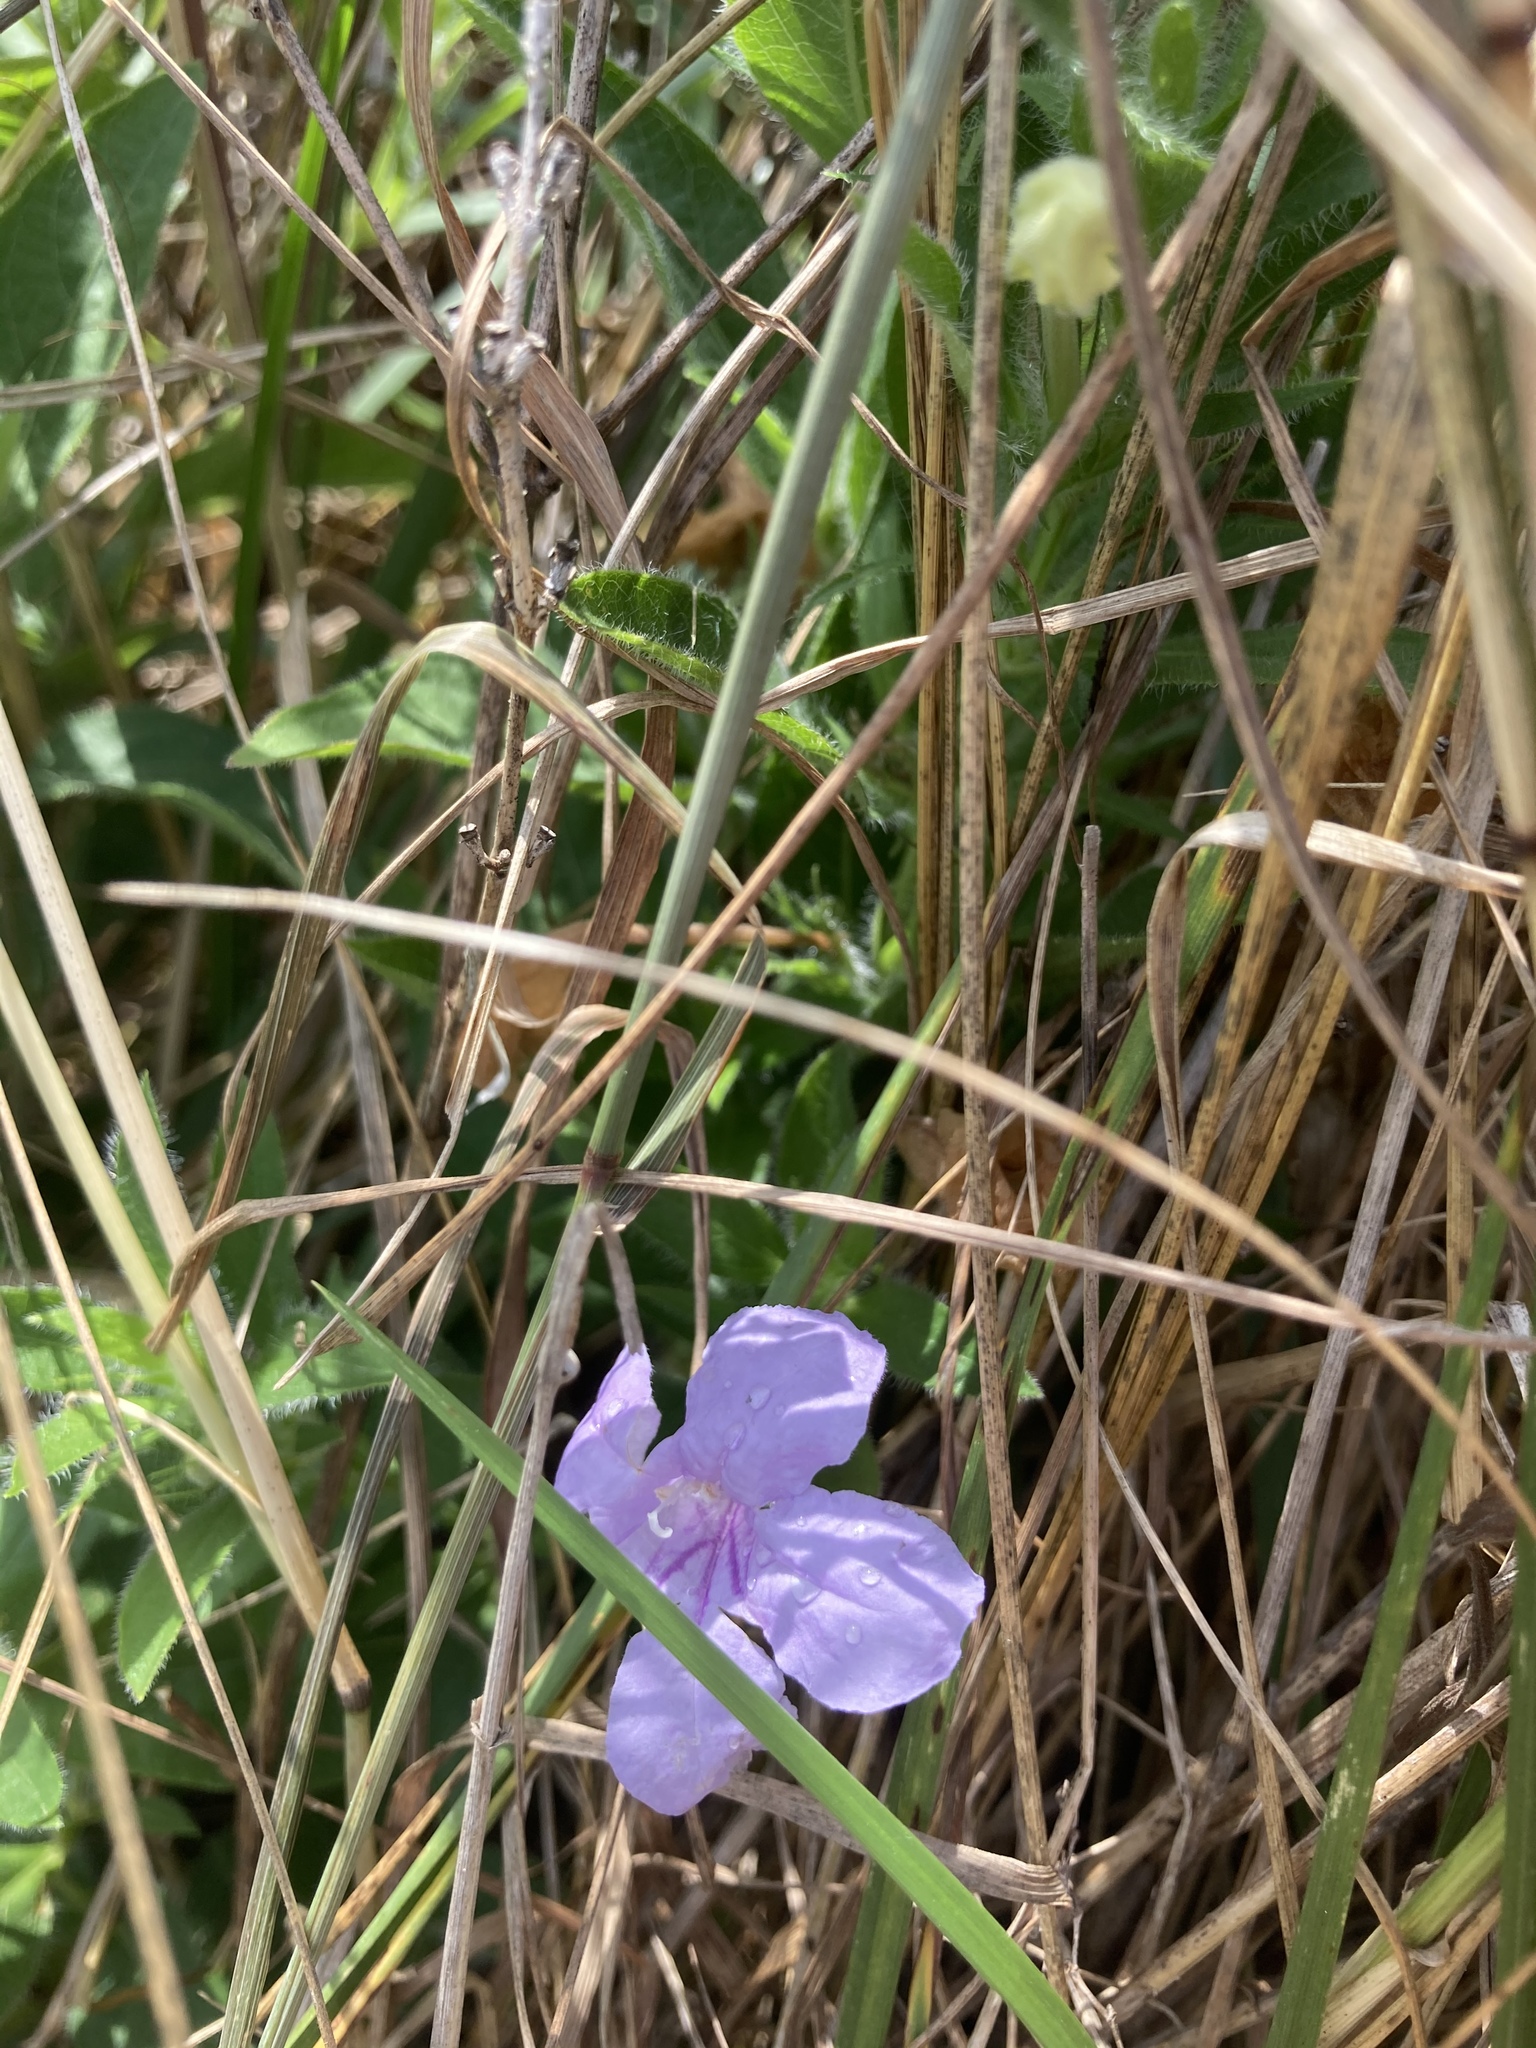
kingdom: Plantae
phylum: Tracheophyta
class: Magnoliopsida
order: Lamiales
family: Acanthaceae
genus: Ruellia
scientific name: Ruellia humilis
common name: Fringe-leaf ruellia
